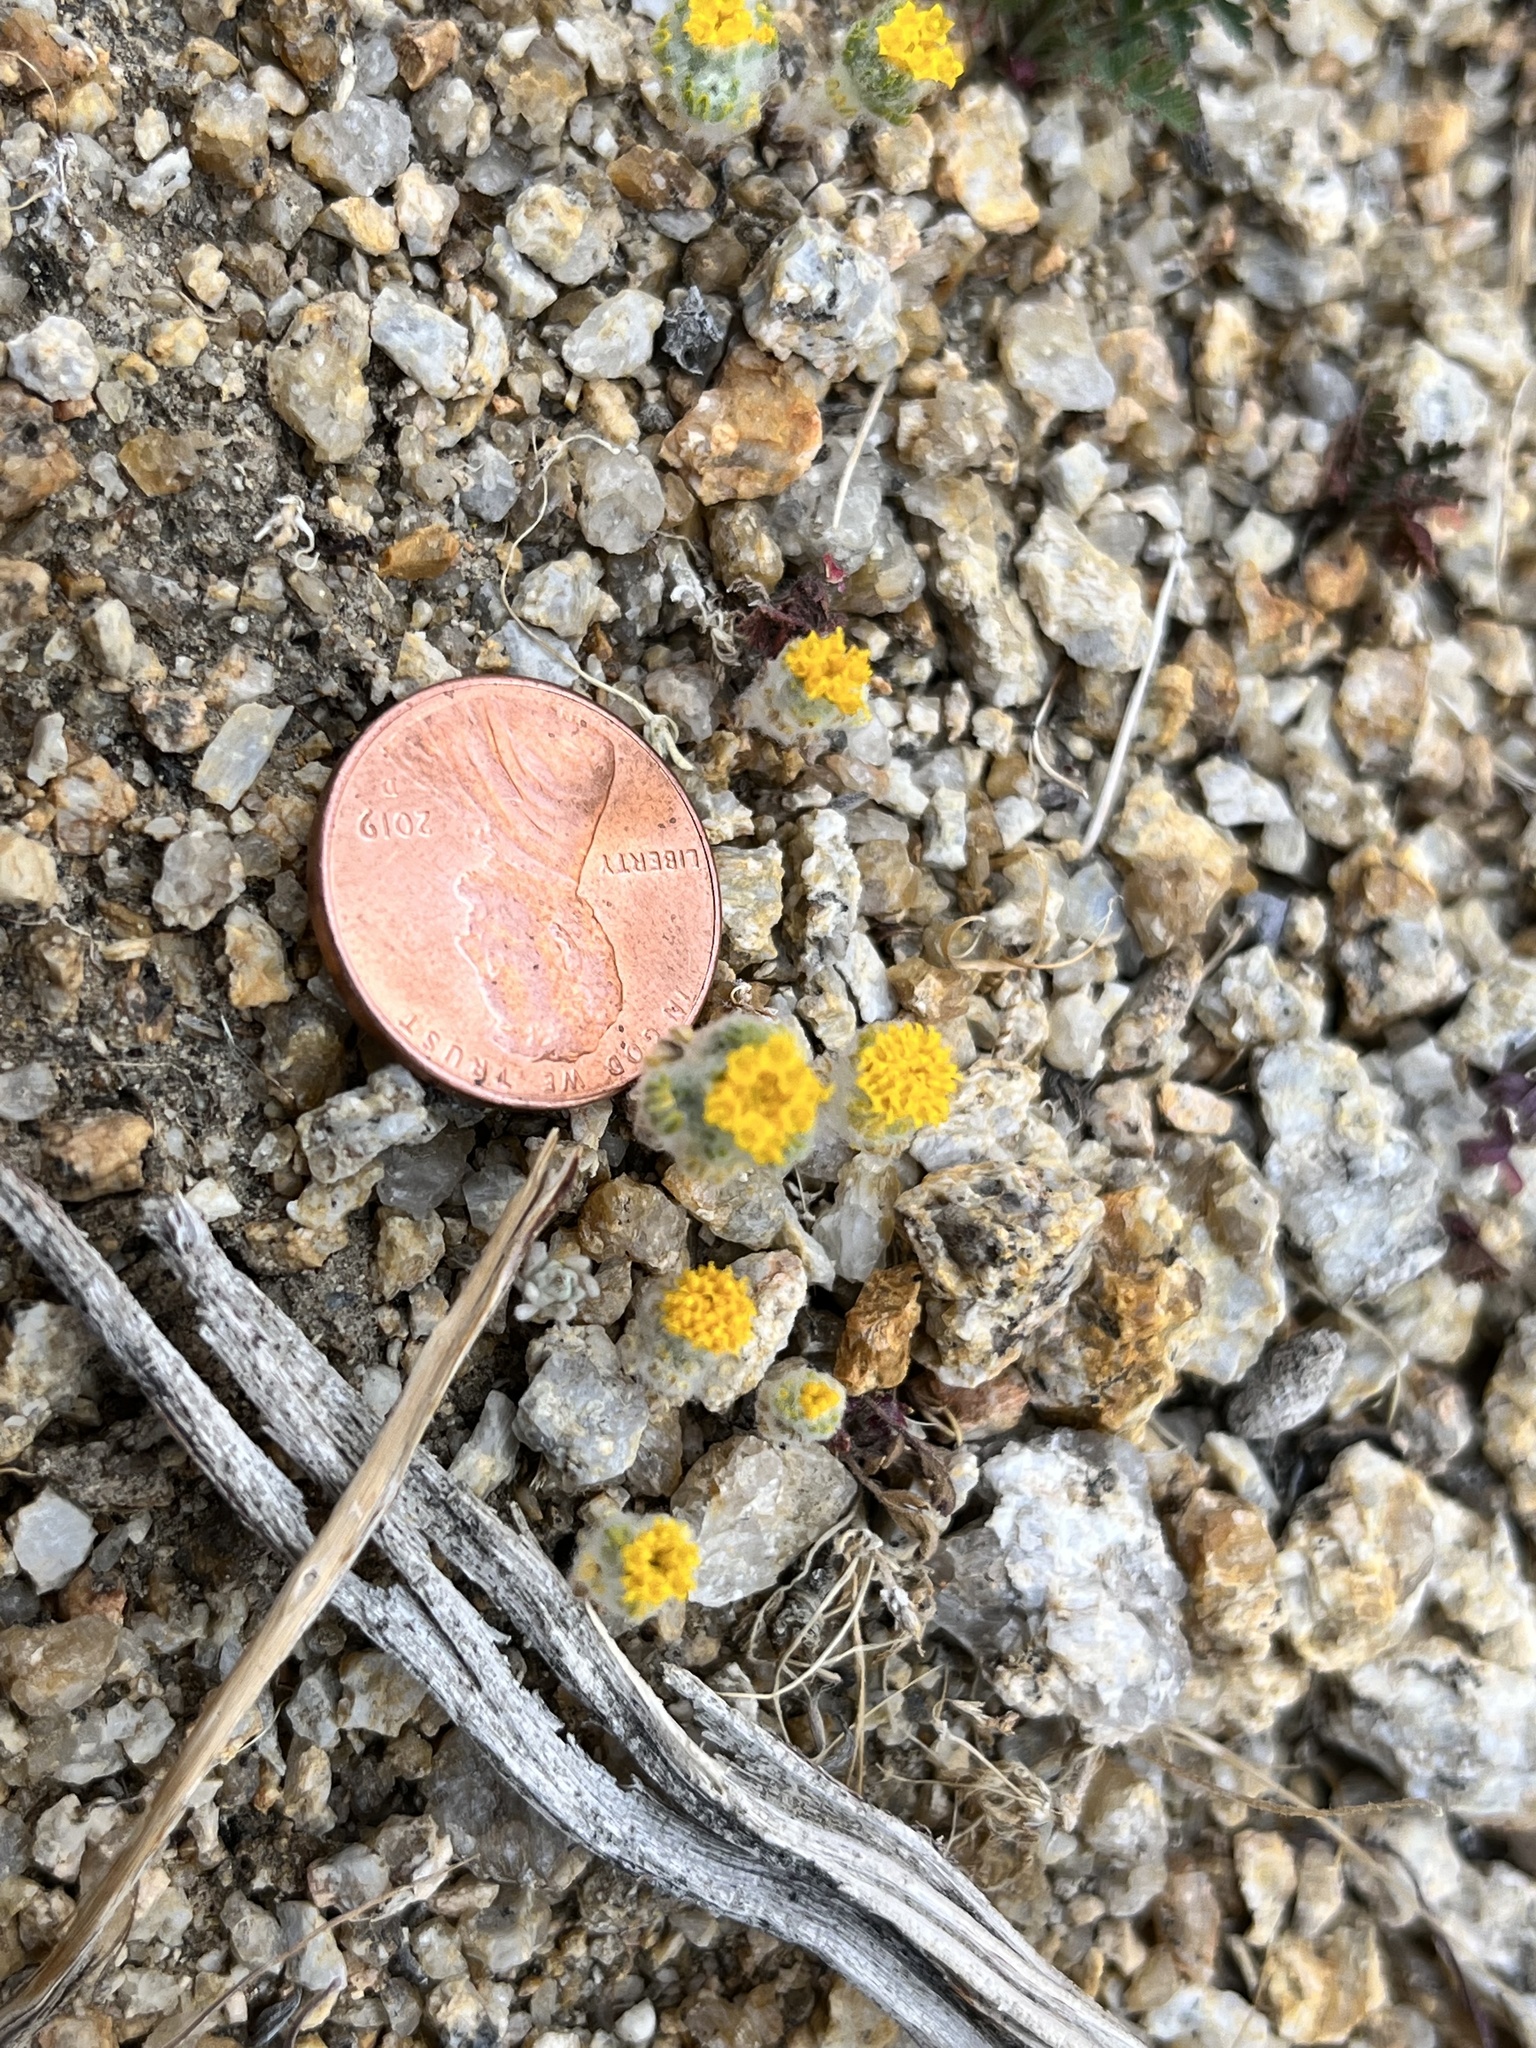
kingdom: Plantae
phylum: Tracheophyta
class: Magnoliopsida
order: Asterales
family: Asteraceae
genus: Eriophyllum
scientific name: Eriophyllum pringlei
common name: Pringle's woolly-sunflower
